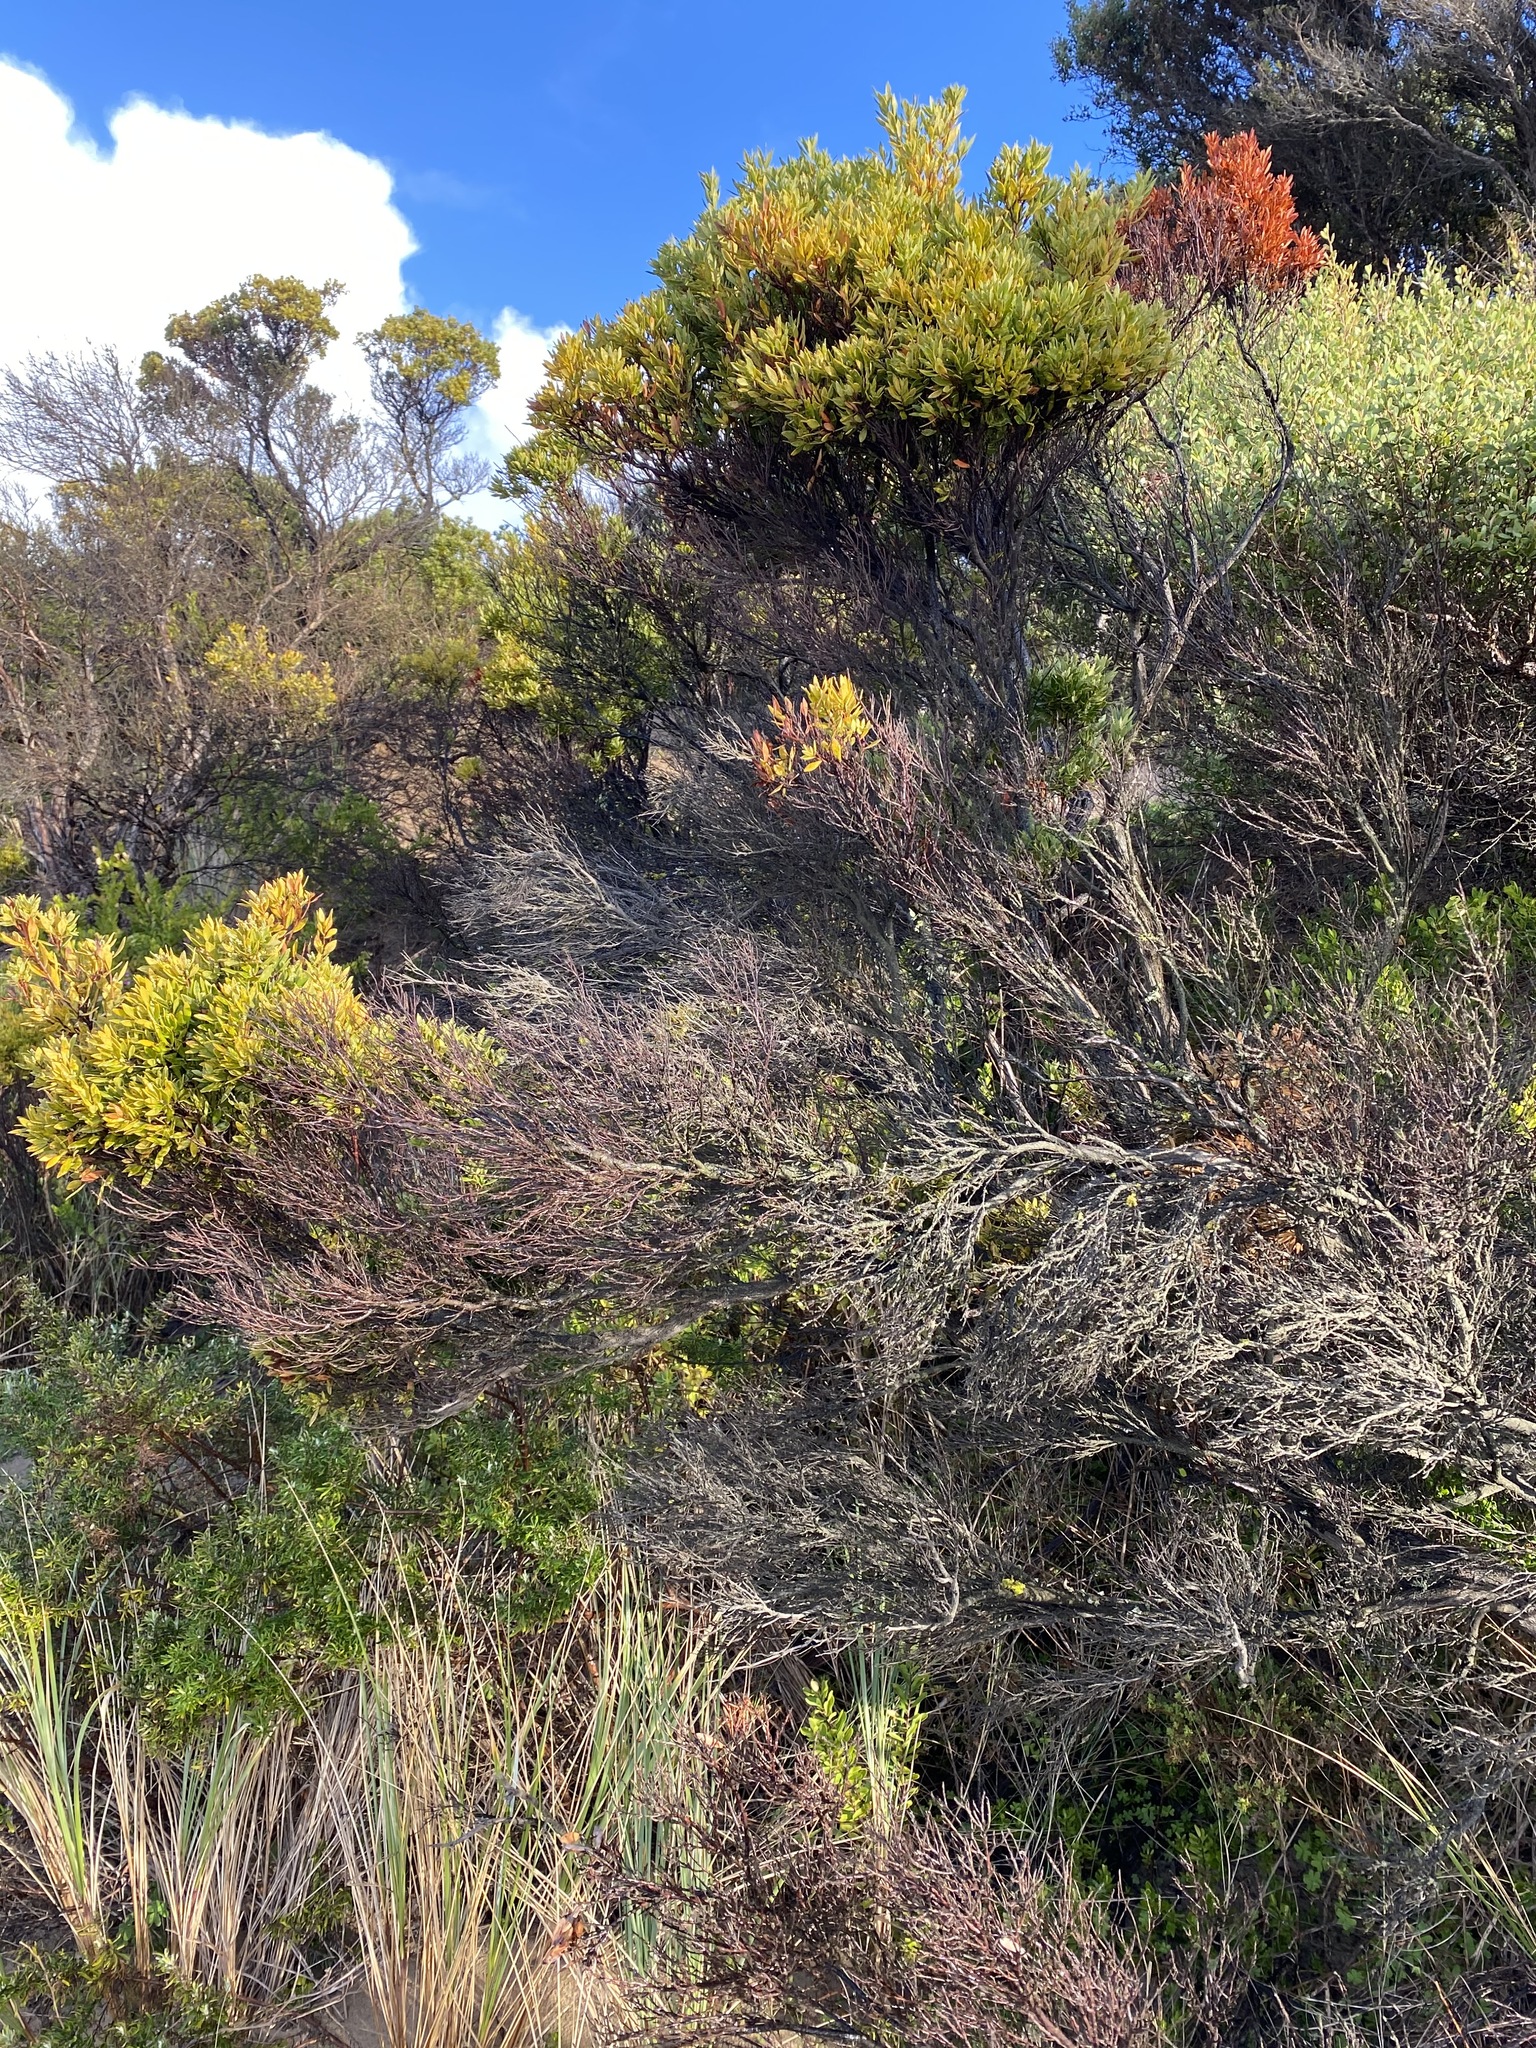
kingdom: Plantae
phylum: Tracheophyta
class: Magnoliopsida
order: Ericales
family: Ericaceae
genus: Leptecophylla
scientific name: Leptecophylla parvifolia
